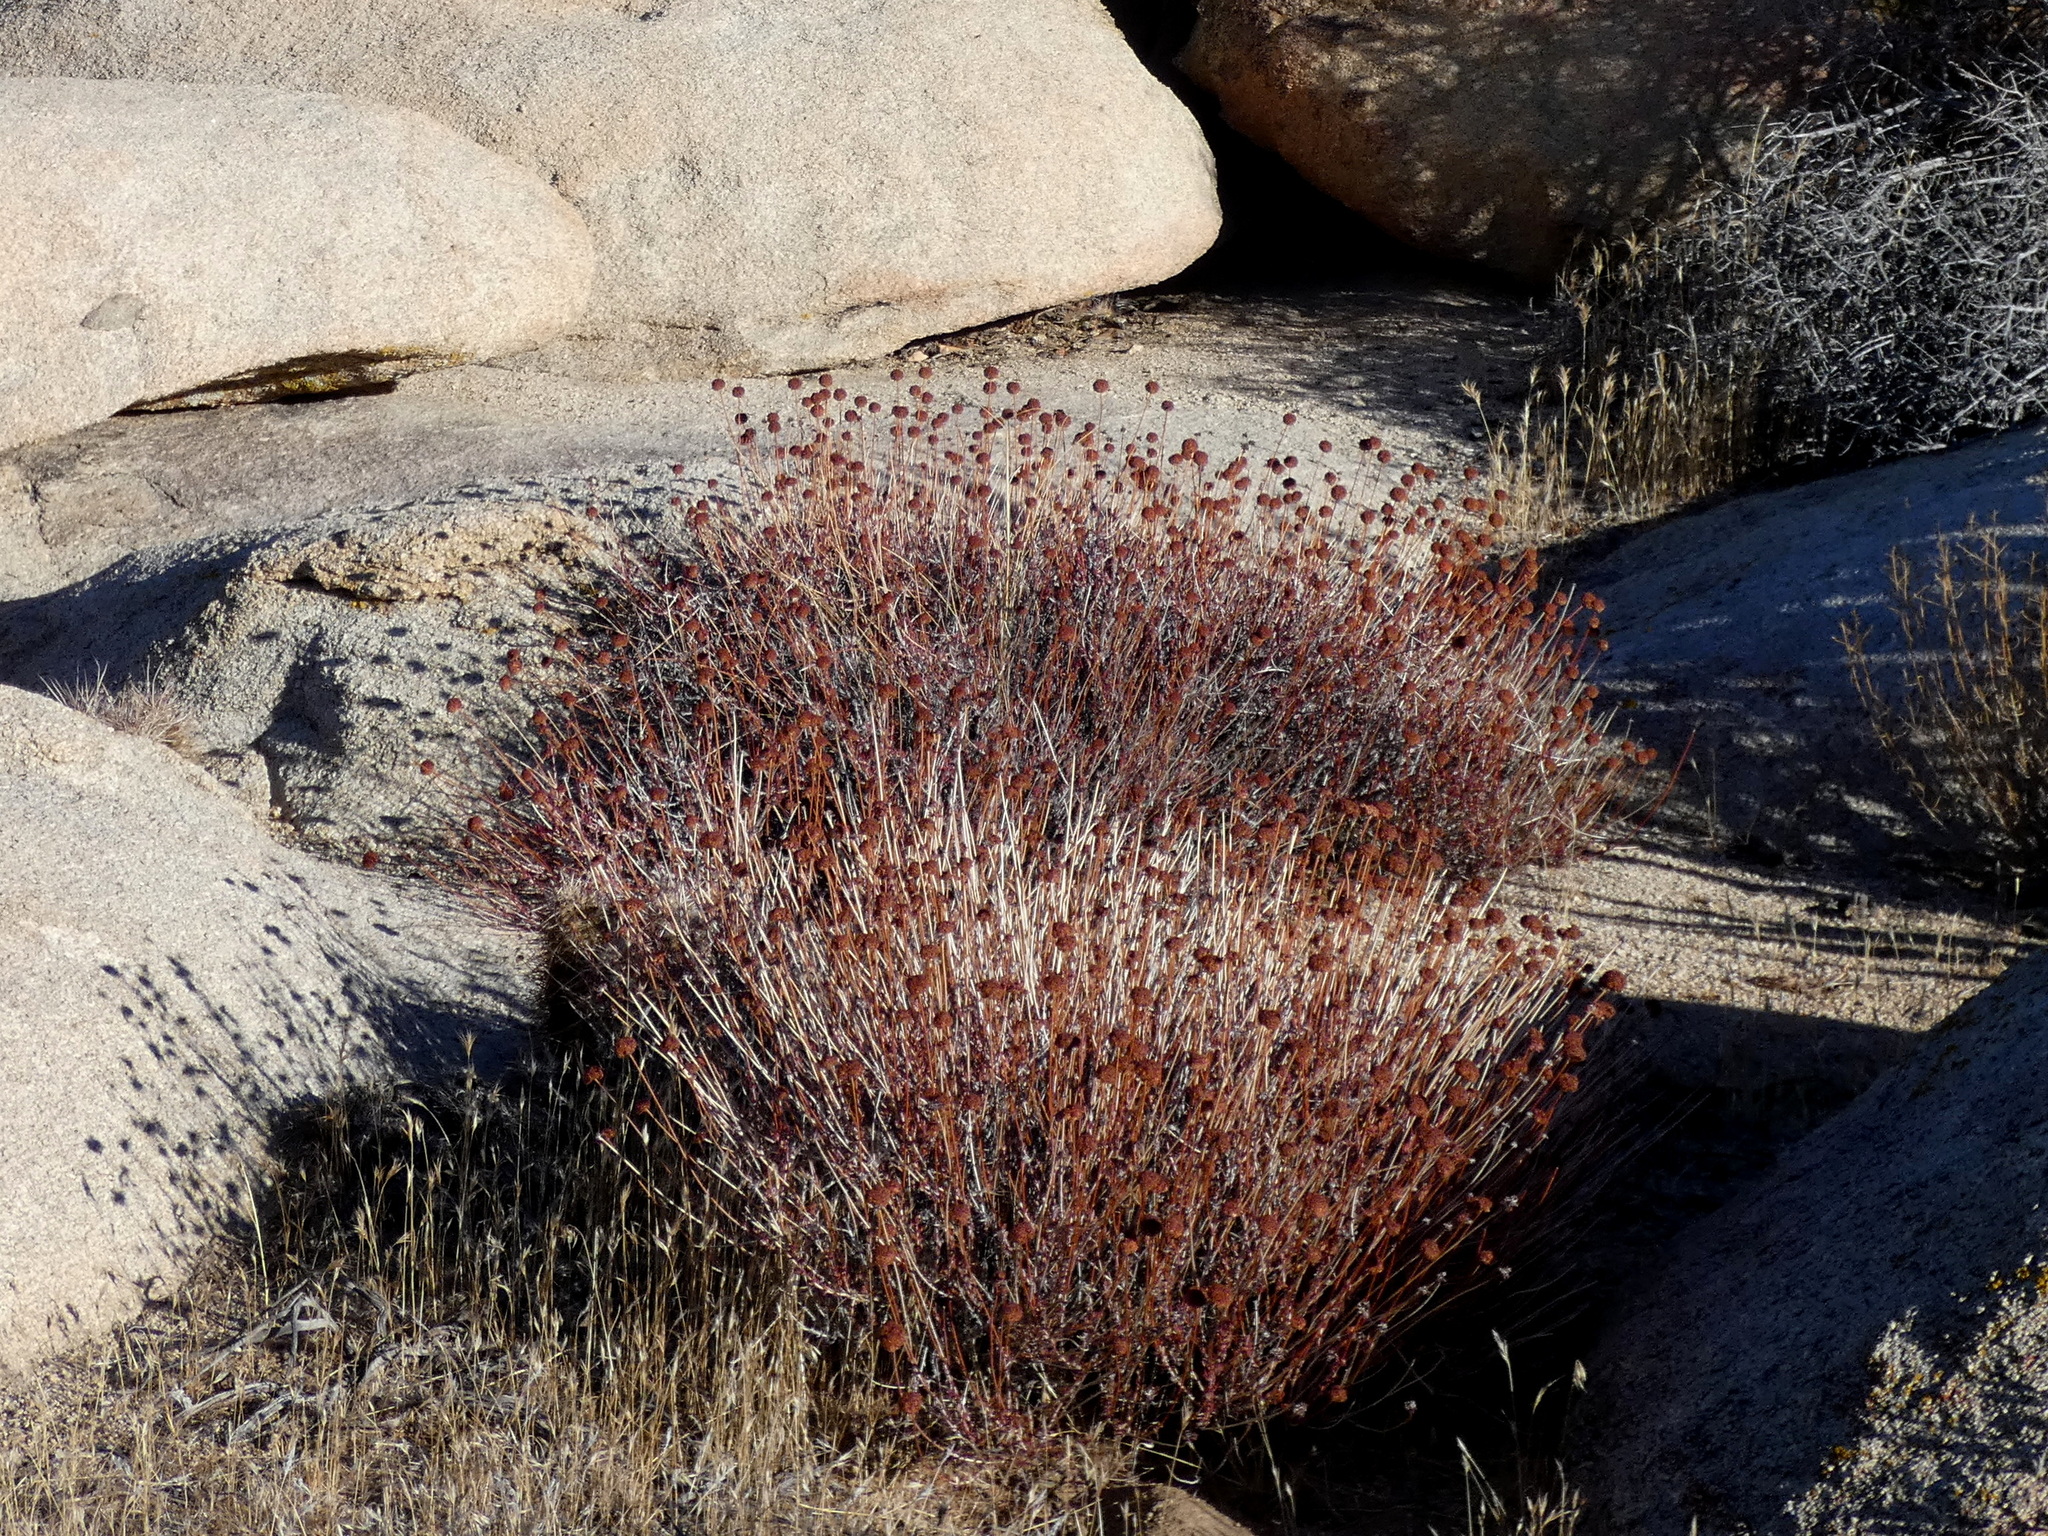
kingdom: Plantae
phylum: Tracheophyta
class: Magnoliopsida
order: Caryophyllales
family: Polygonaceae
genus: Eriogonum
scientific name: Eriogonum fasciculatum
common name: California wild buckwheat
